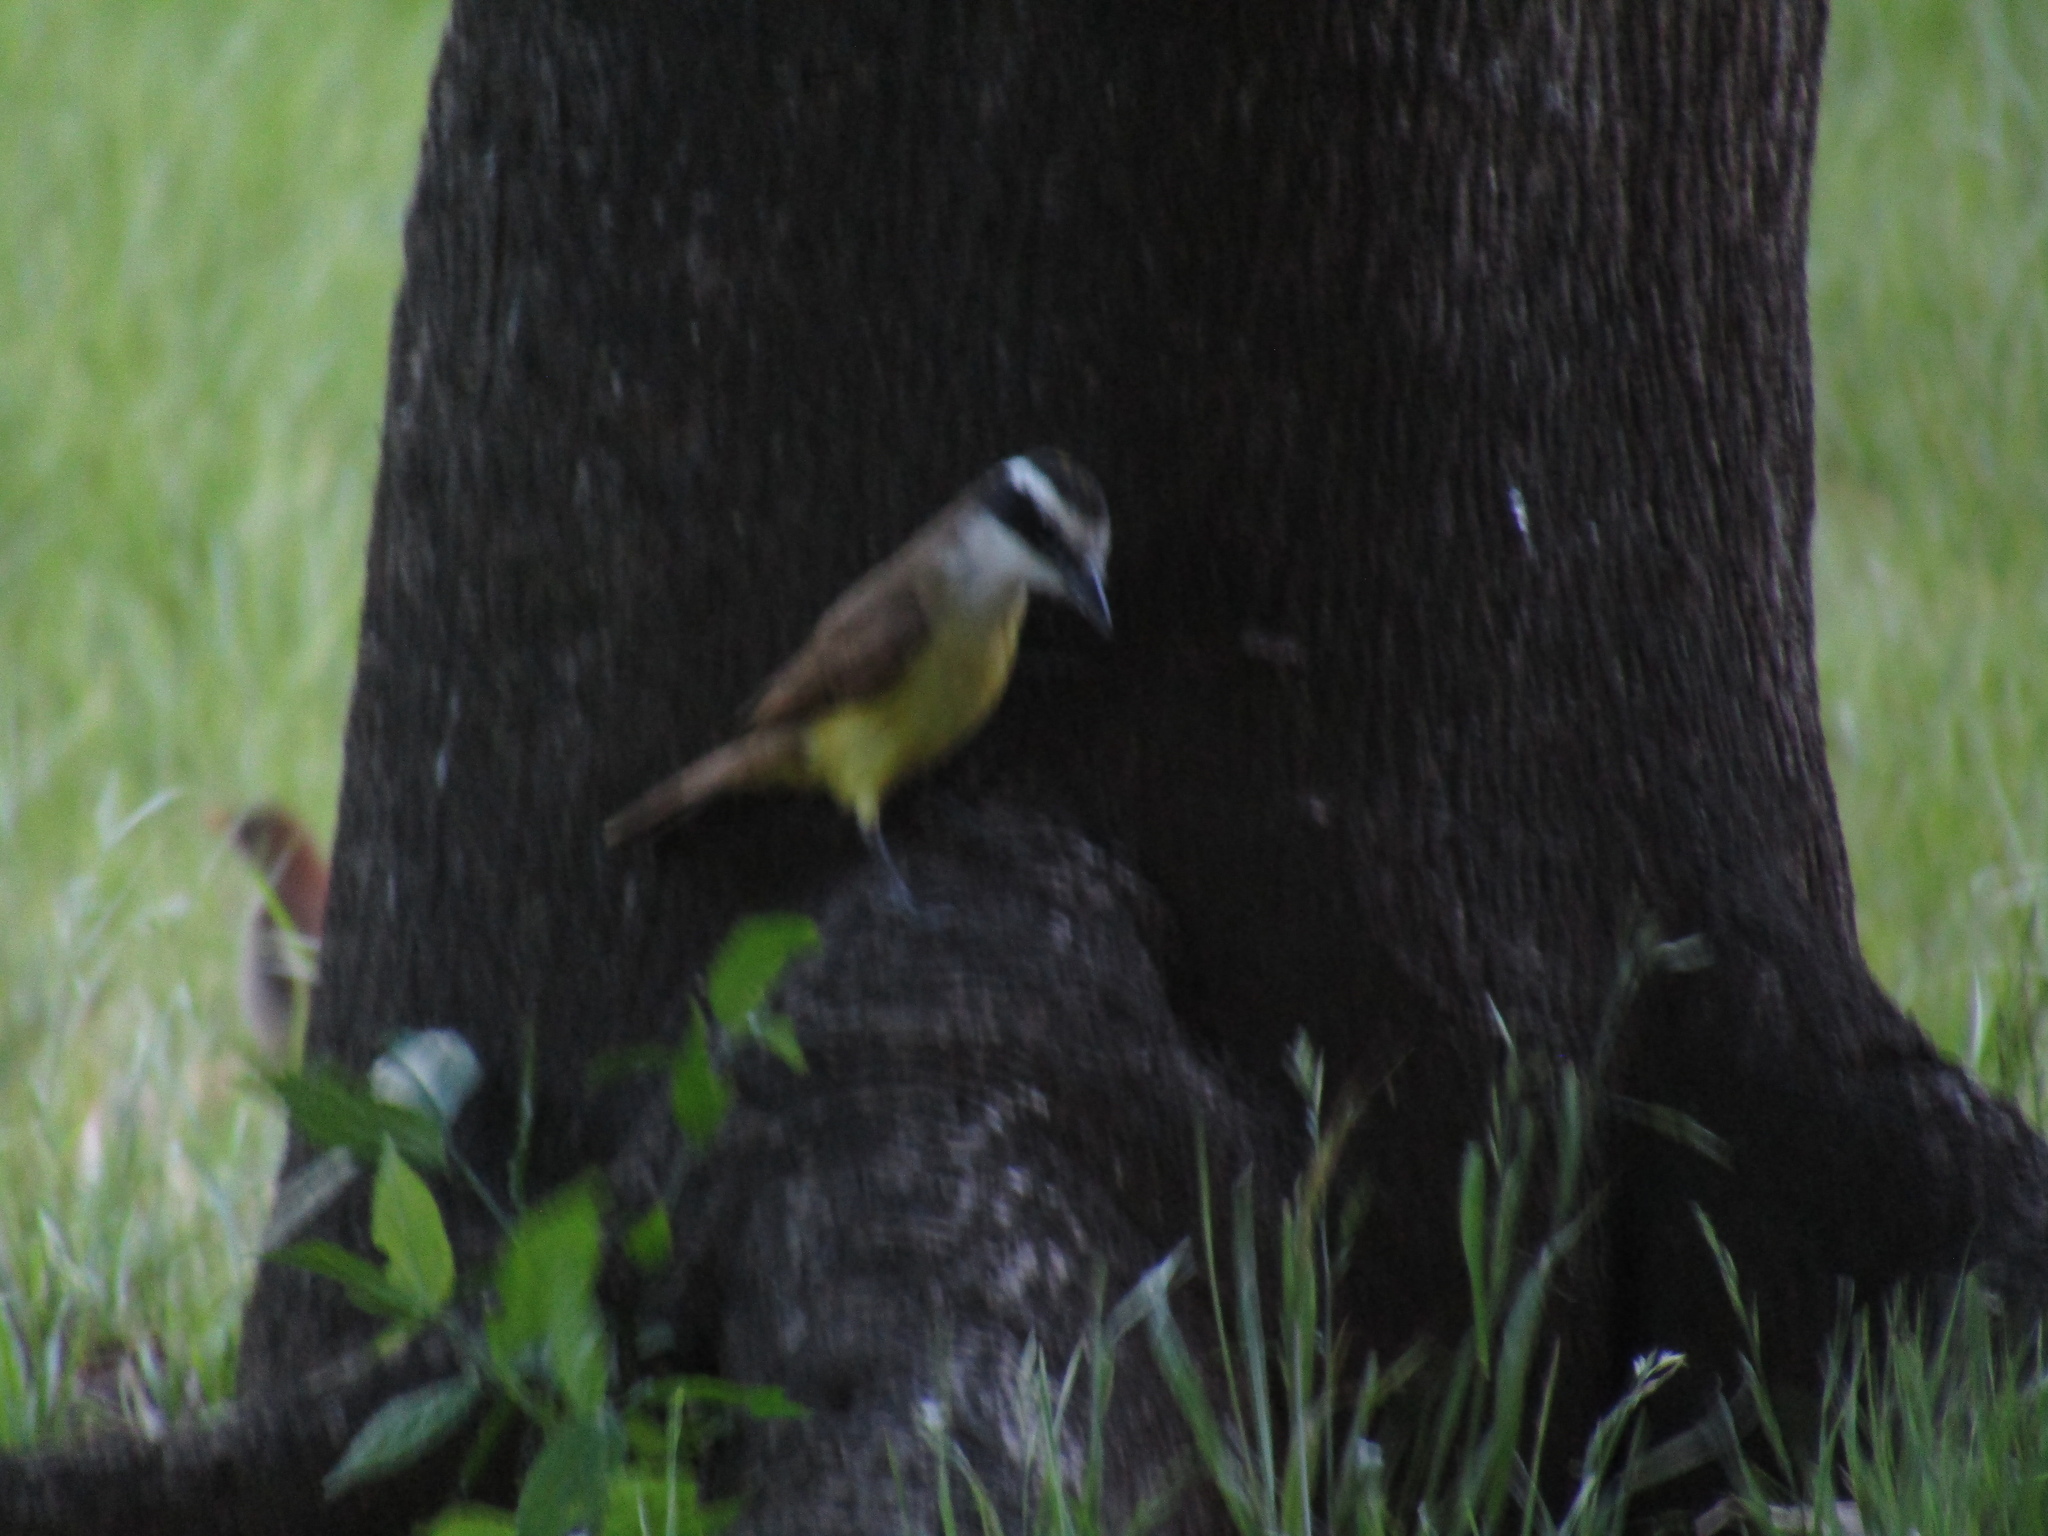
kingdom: Animalia
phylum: Chordata
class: Aves
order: Passeriformes
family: Tyrannidae
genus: Pitangus
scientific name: Pitangus sulphuratus
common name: Great kiskadee
